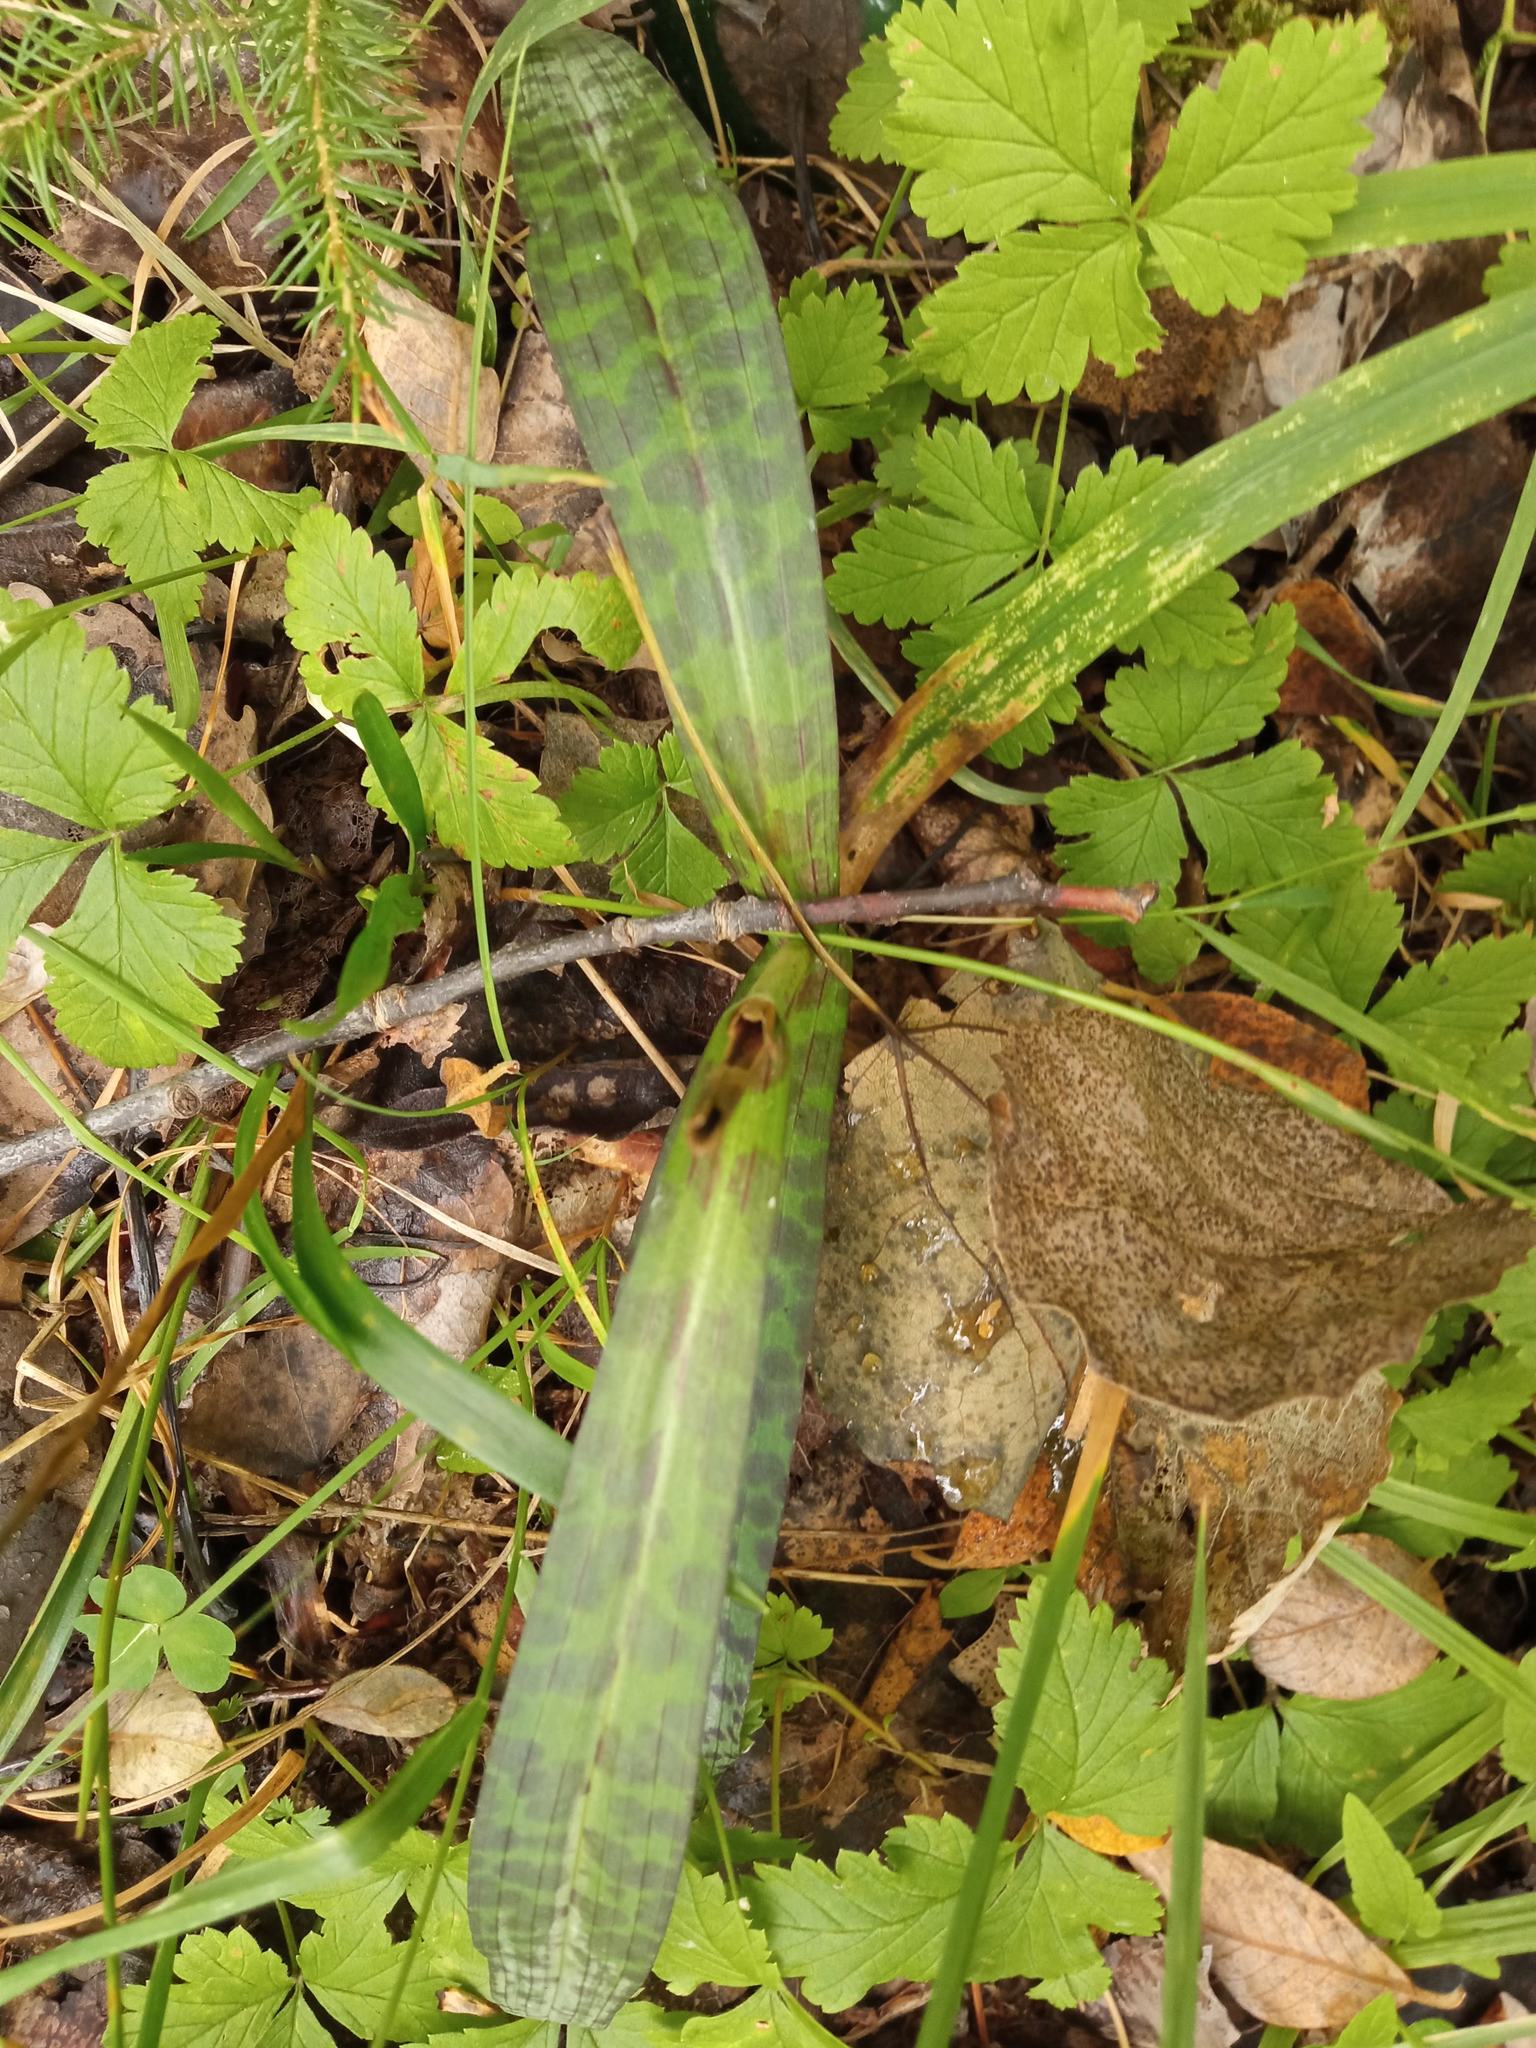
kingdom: Plantae
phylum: Tracheophyta
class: Liliopsida
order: Asparagales
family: Orchidaceae
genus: Dactylorhiza
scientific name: Dactylorhiza maculata
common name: Heath spotted-orchid
